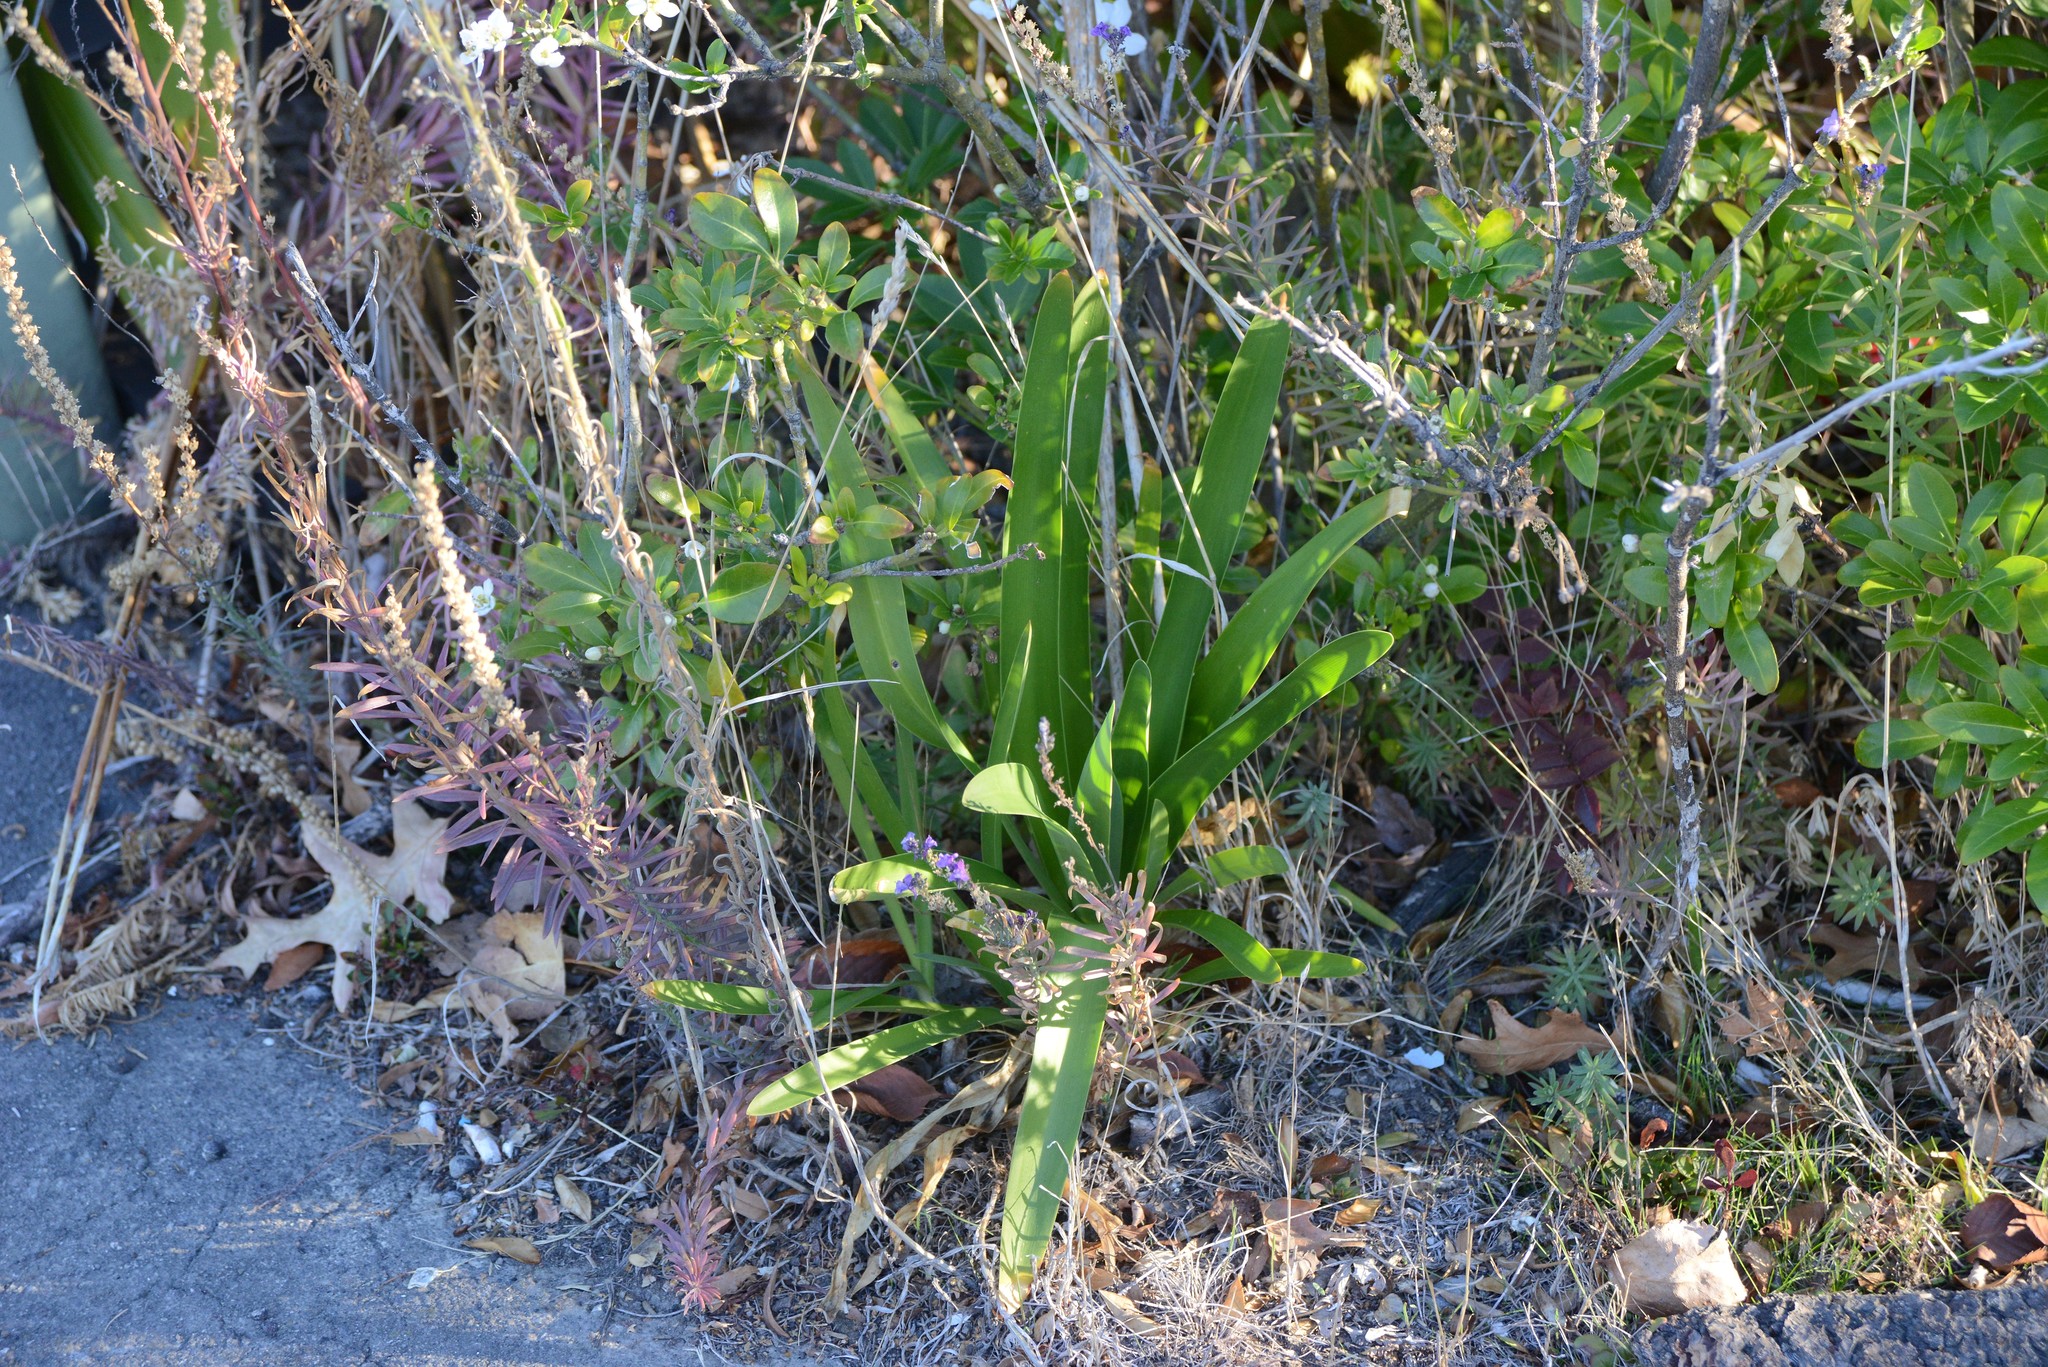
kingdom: Plantae
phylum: Tracheophyta
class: Liliopsida
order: Asparagales
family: Amaryllidaceae
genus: Agapanthus
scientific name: Agapanthus praecox
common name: African-lily
